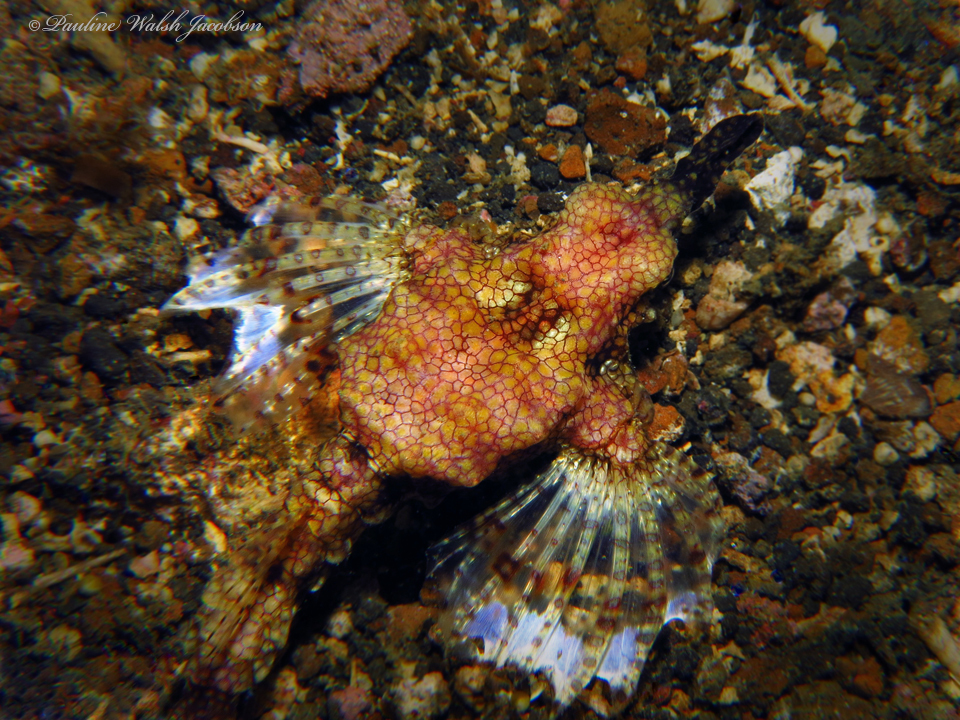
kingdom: Animalia
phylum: Chordata
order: Gasterosteiformes
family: Pegasidae
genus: Eurypegasus
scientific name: Eurypegasus draconis
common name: Short dragonfish
